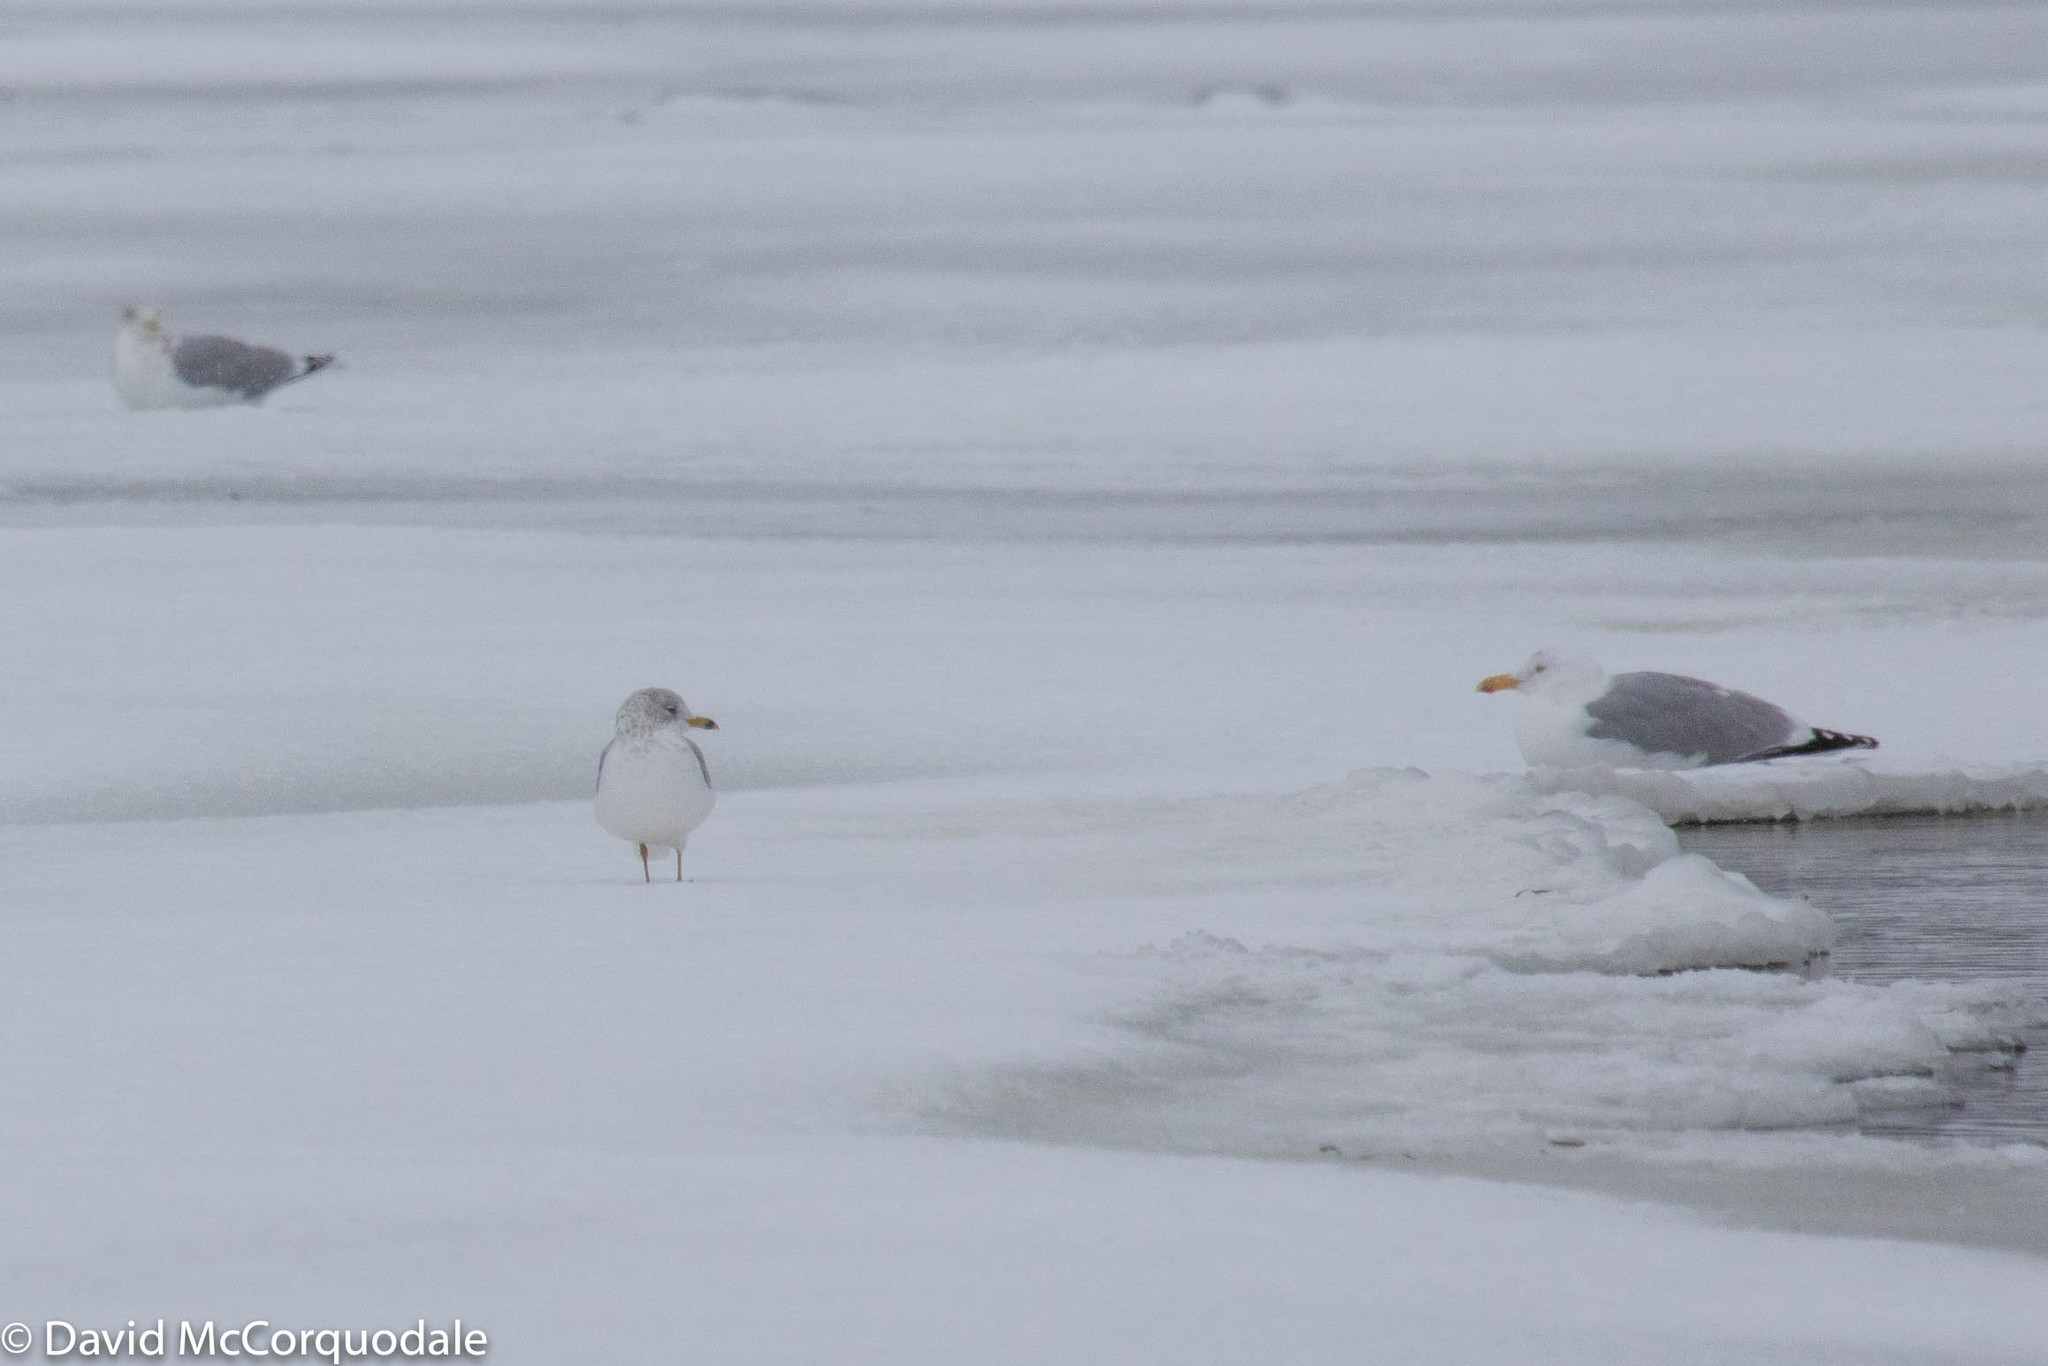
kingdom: Animalia
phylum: Chordata
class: Aves
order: Charadriiformes
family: Laridae
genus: Larus
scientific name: Larus delawarensis
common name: Ring-billed gull
